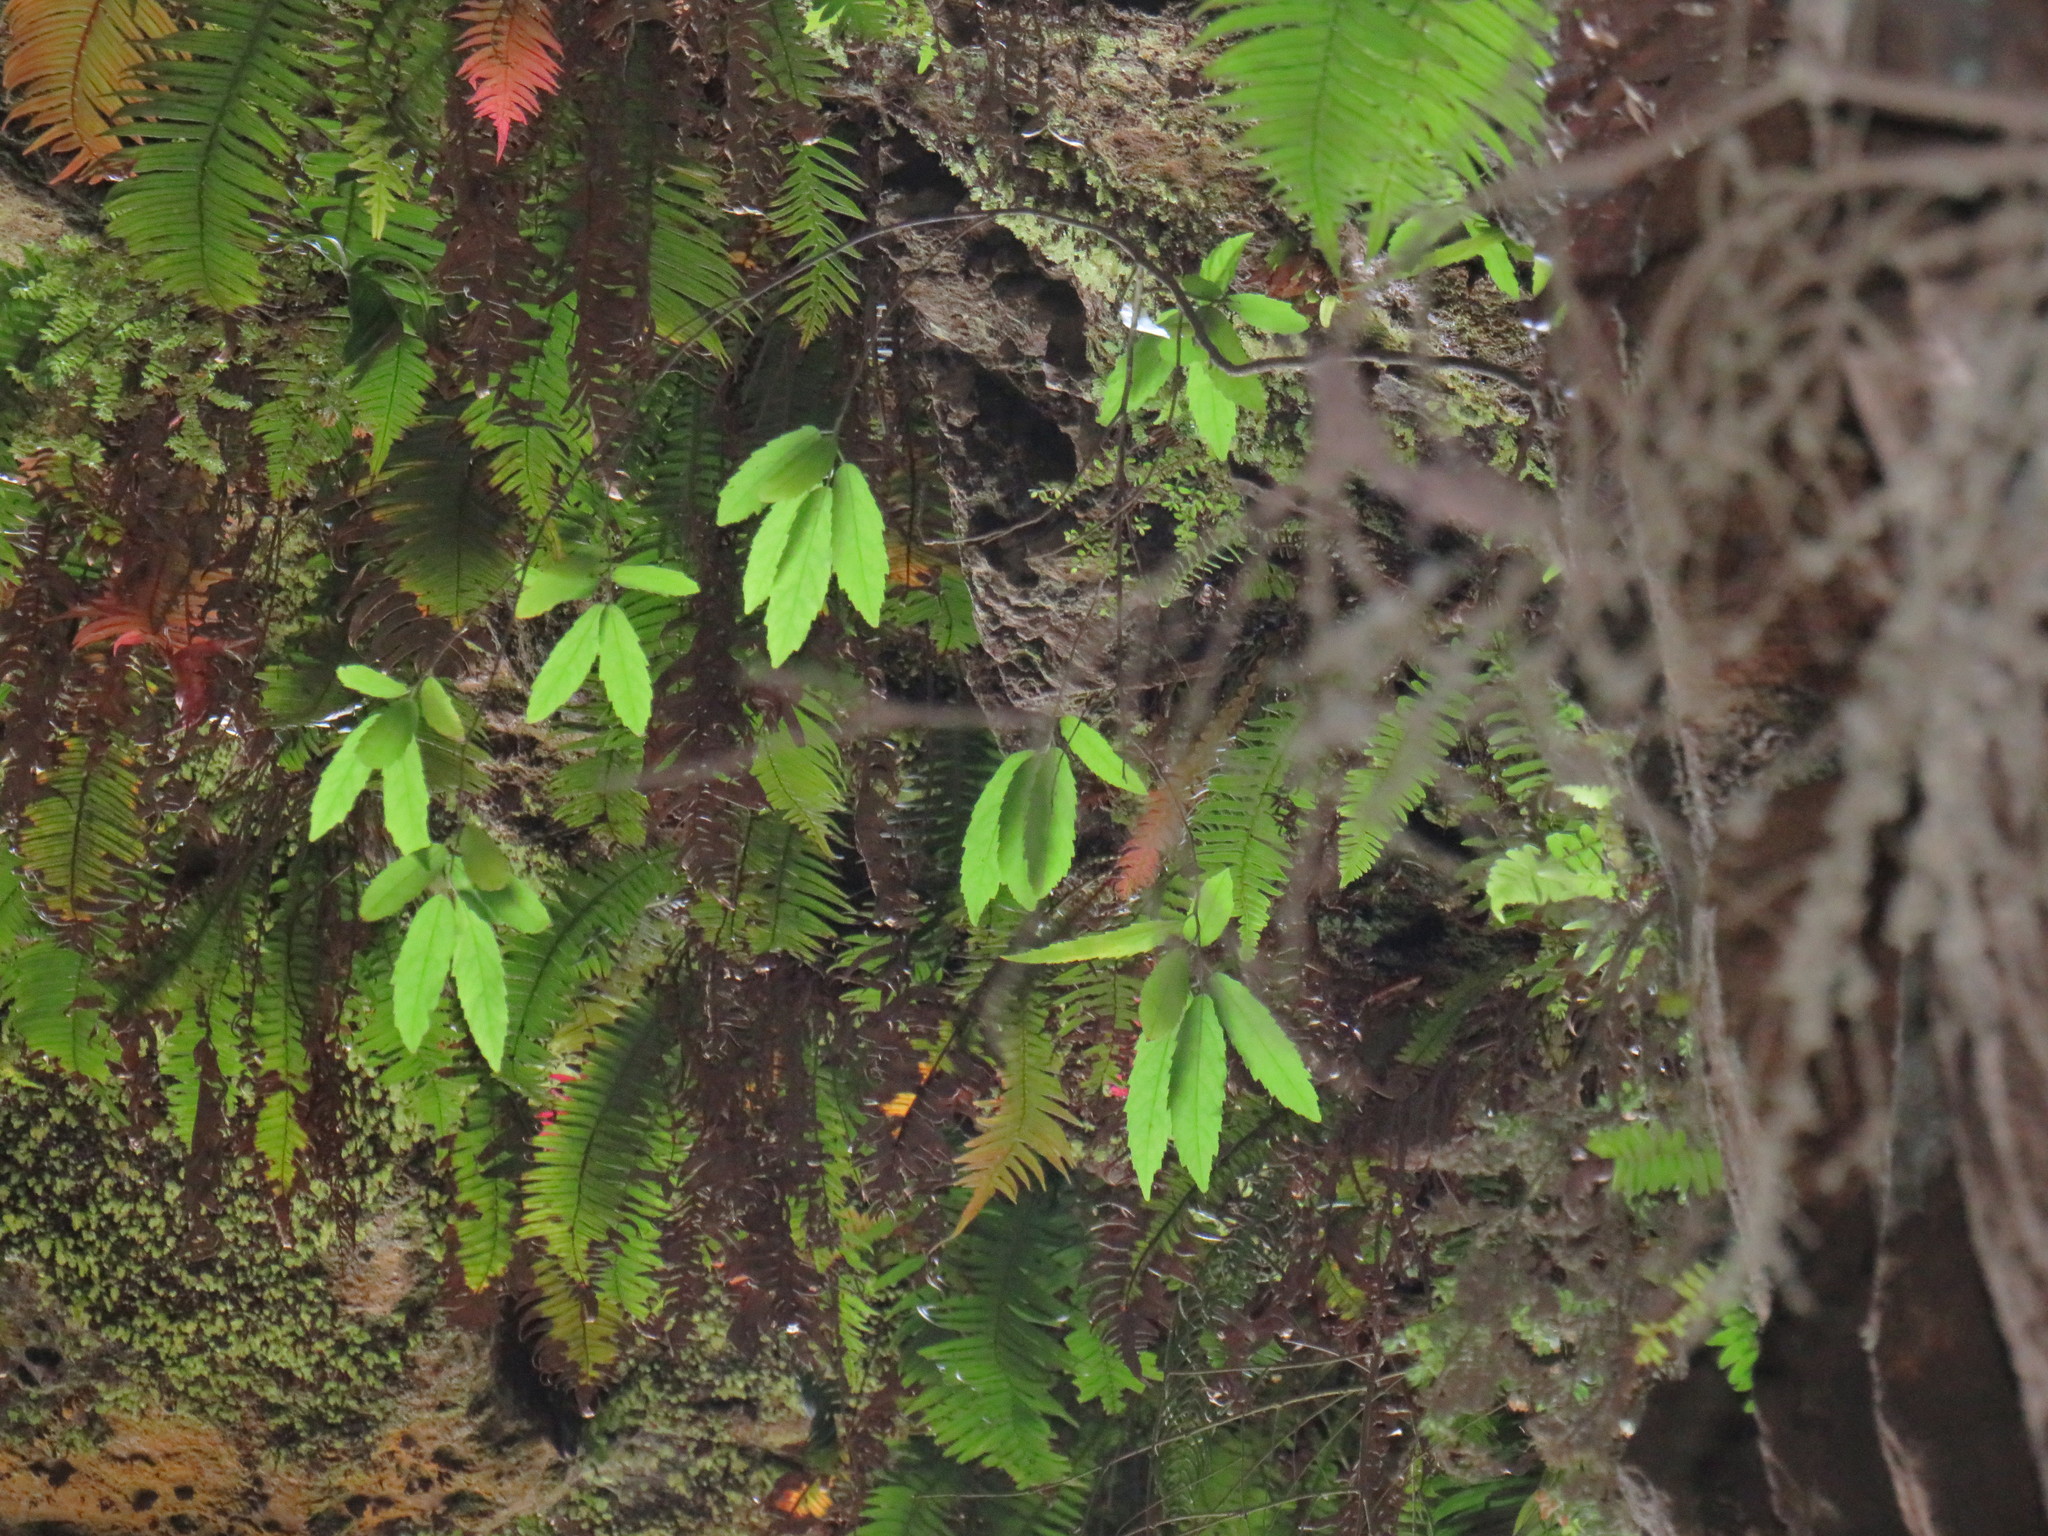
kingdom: Plantae
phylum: Tracheophyta
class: Magnoliopsida
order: Malpighiales
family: Achariaceae
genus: Kiggelaria
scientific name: Kiggelaria africana
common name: Wild peach
